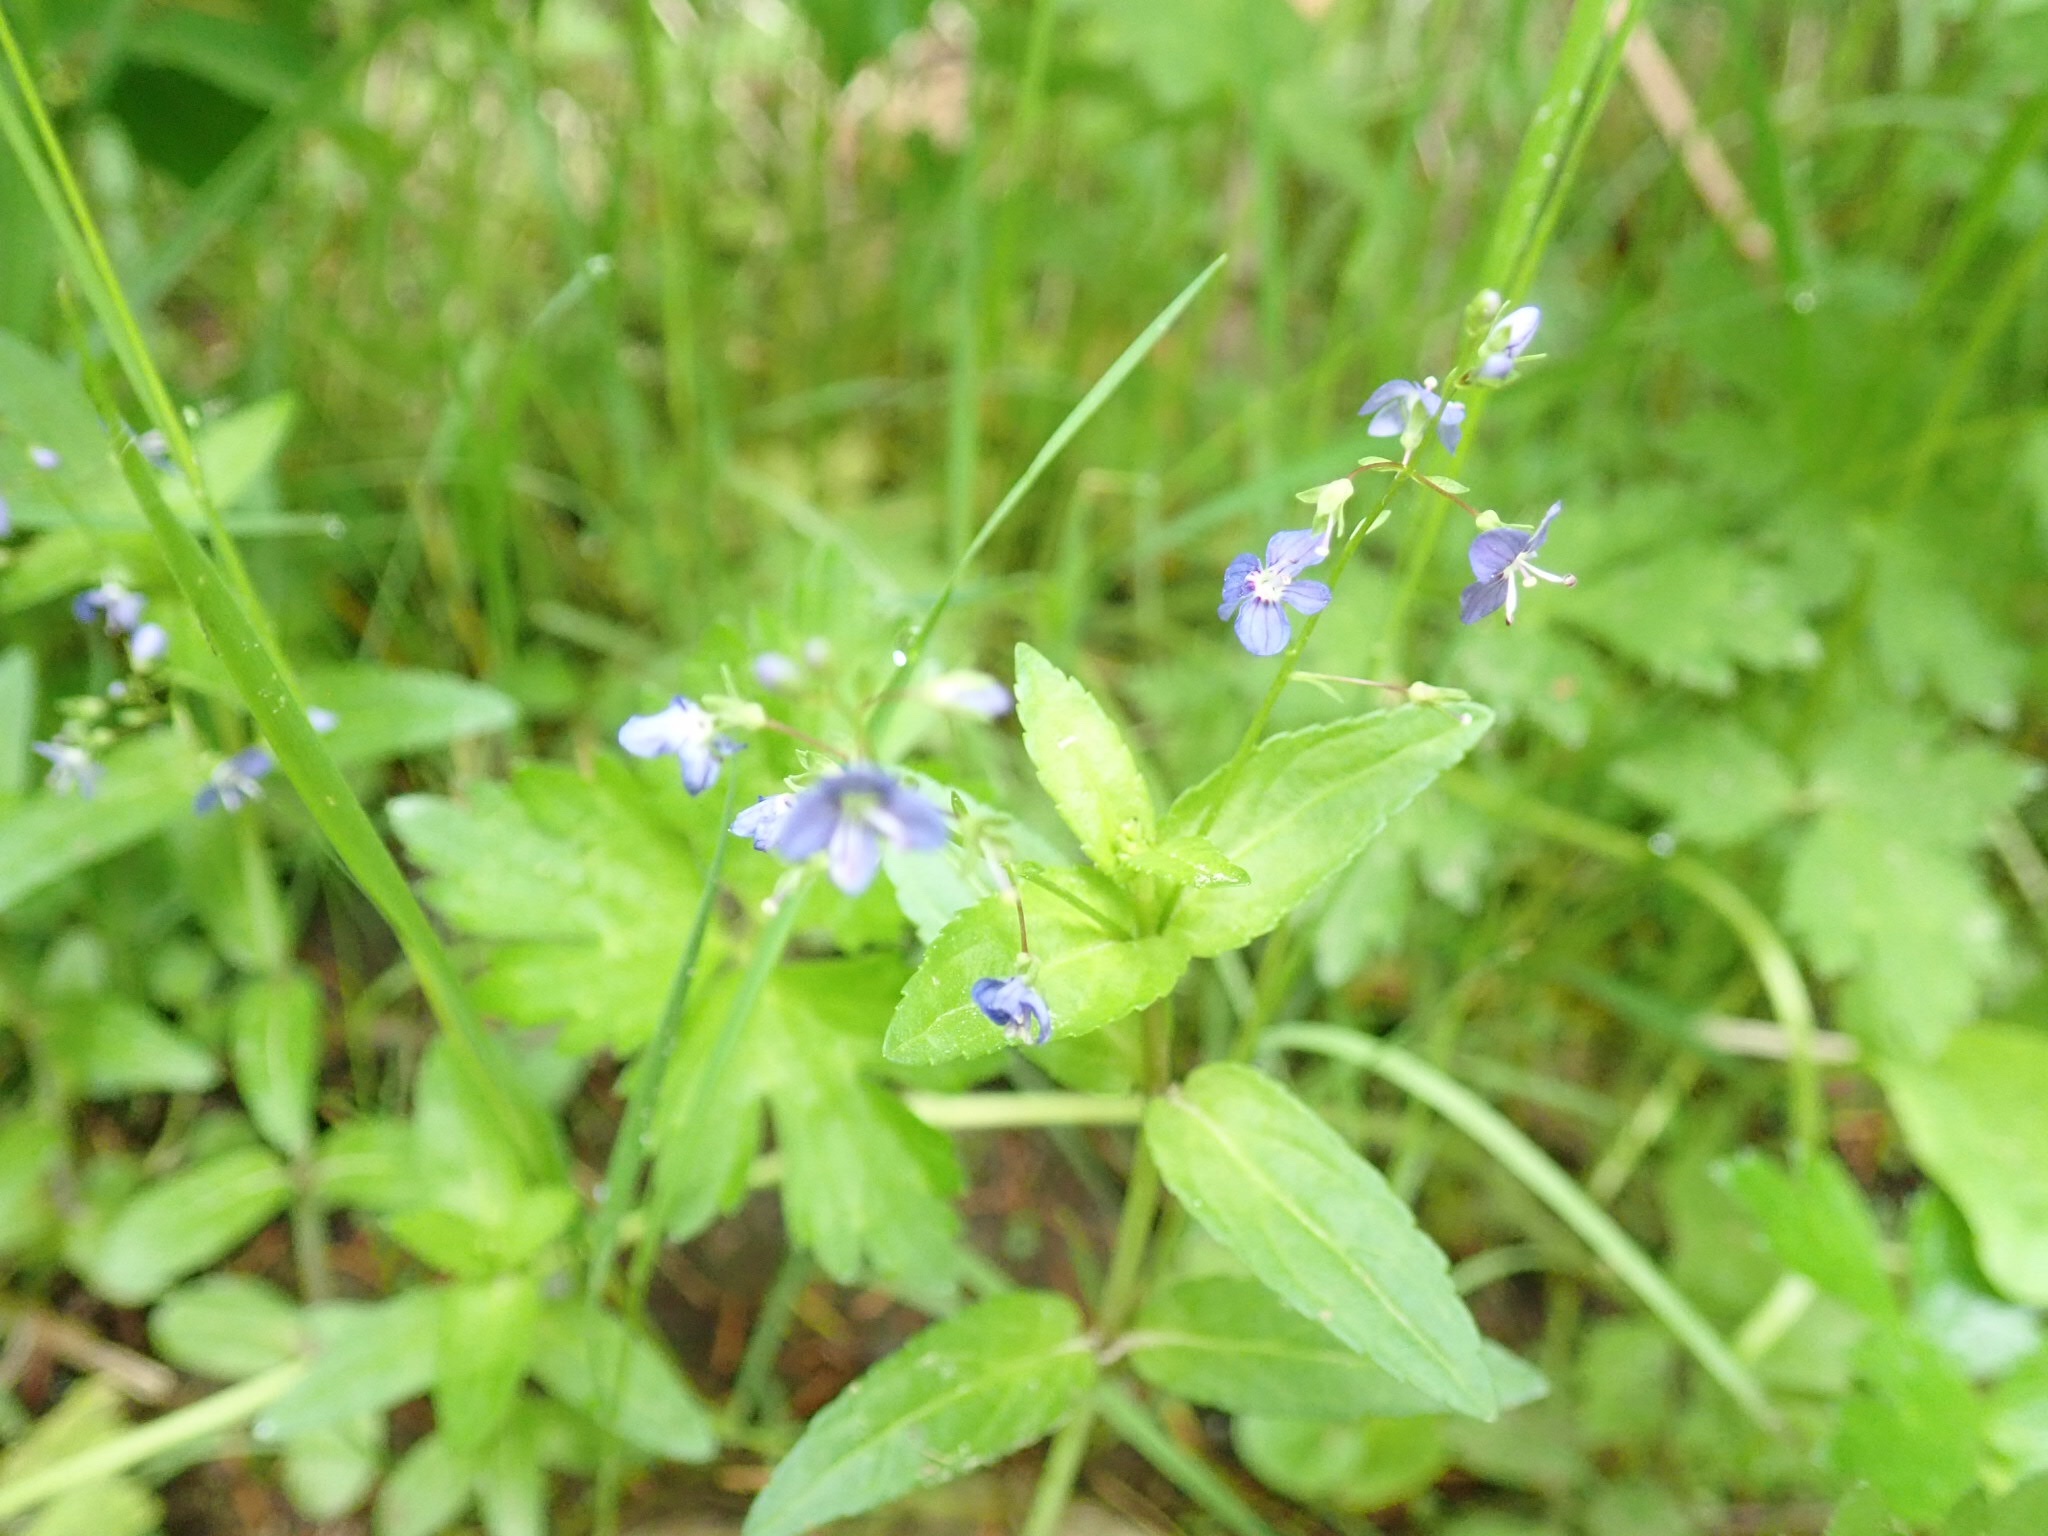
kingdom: Plantae
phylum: Tracheophyta
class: Magnoliopsida
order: Lamiales
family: Plantaginaceae
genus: Veronica
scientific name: Veronica americana
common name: American brooklime
